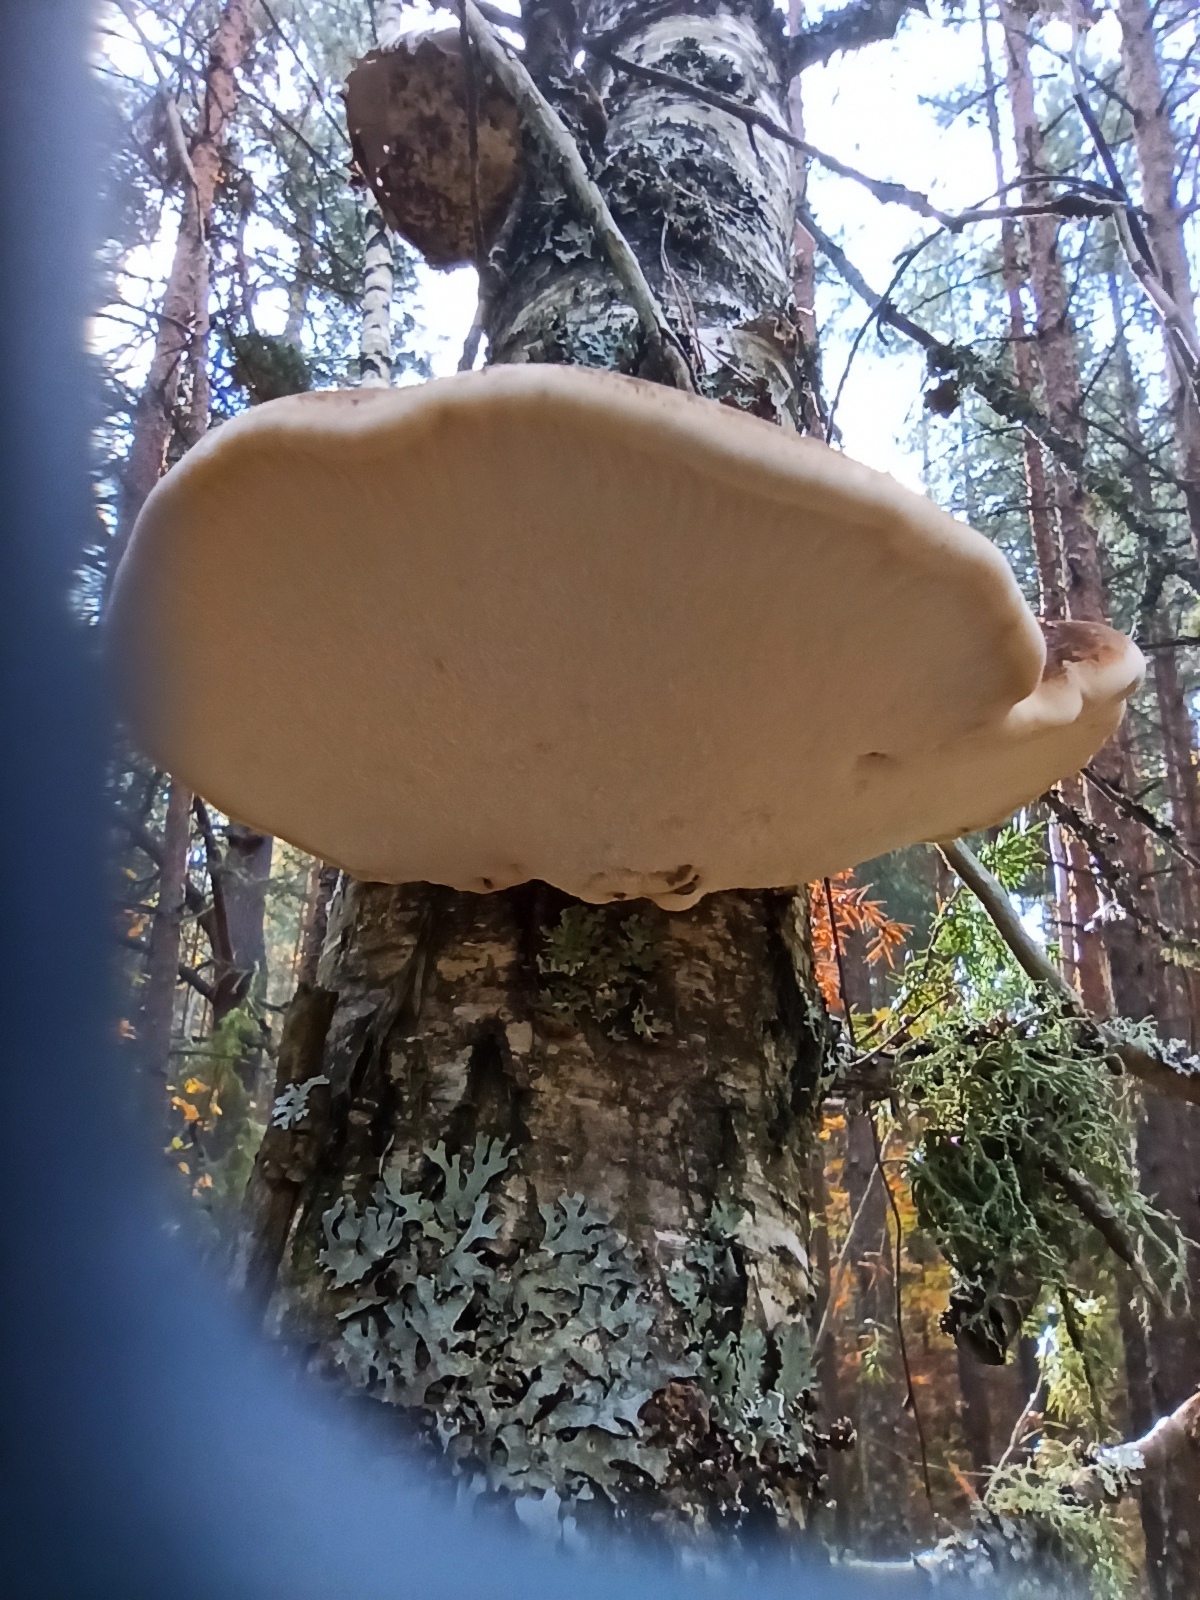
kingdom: Fungi
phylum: Basidiomycota
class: Agaricomycetes
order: Polyporales
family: Fomitopsidaceae
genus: Fomitopsis
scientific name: Fomitopsis betulina
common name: Birch polypore
